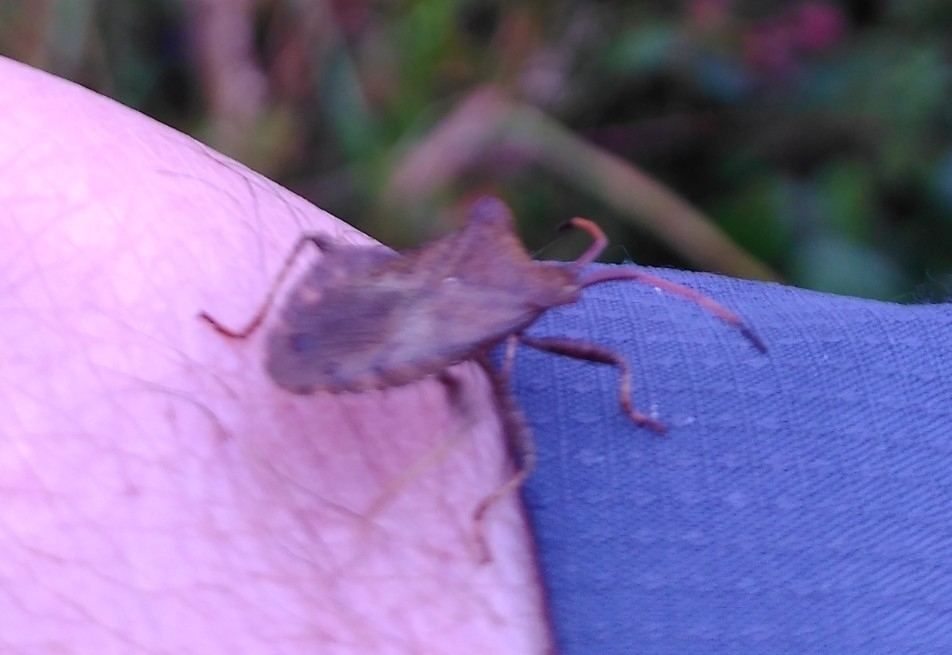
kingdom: Animalia
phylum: Arthropoda
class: Insecta
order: Hemiptera
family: Coreidae
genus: Coreus
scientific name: Coreus marginatus
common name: Dock bug
